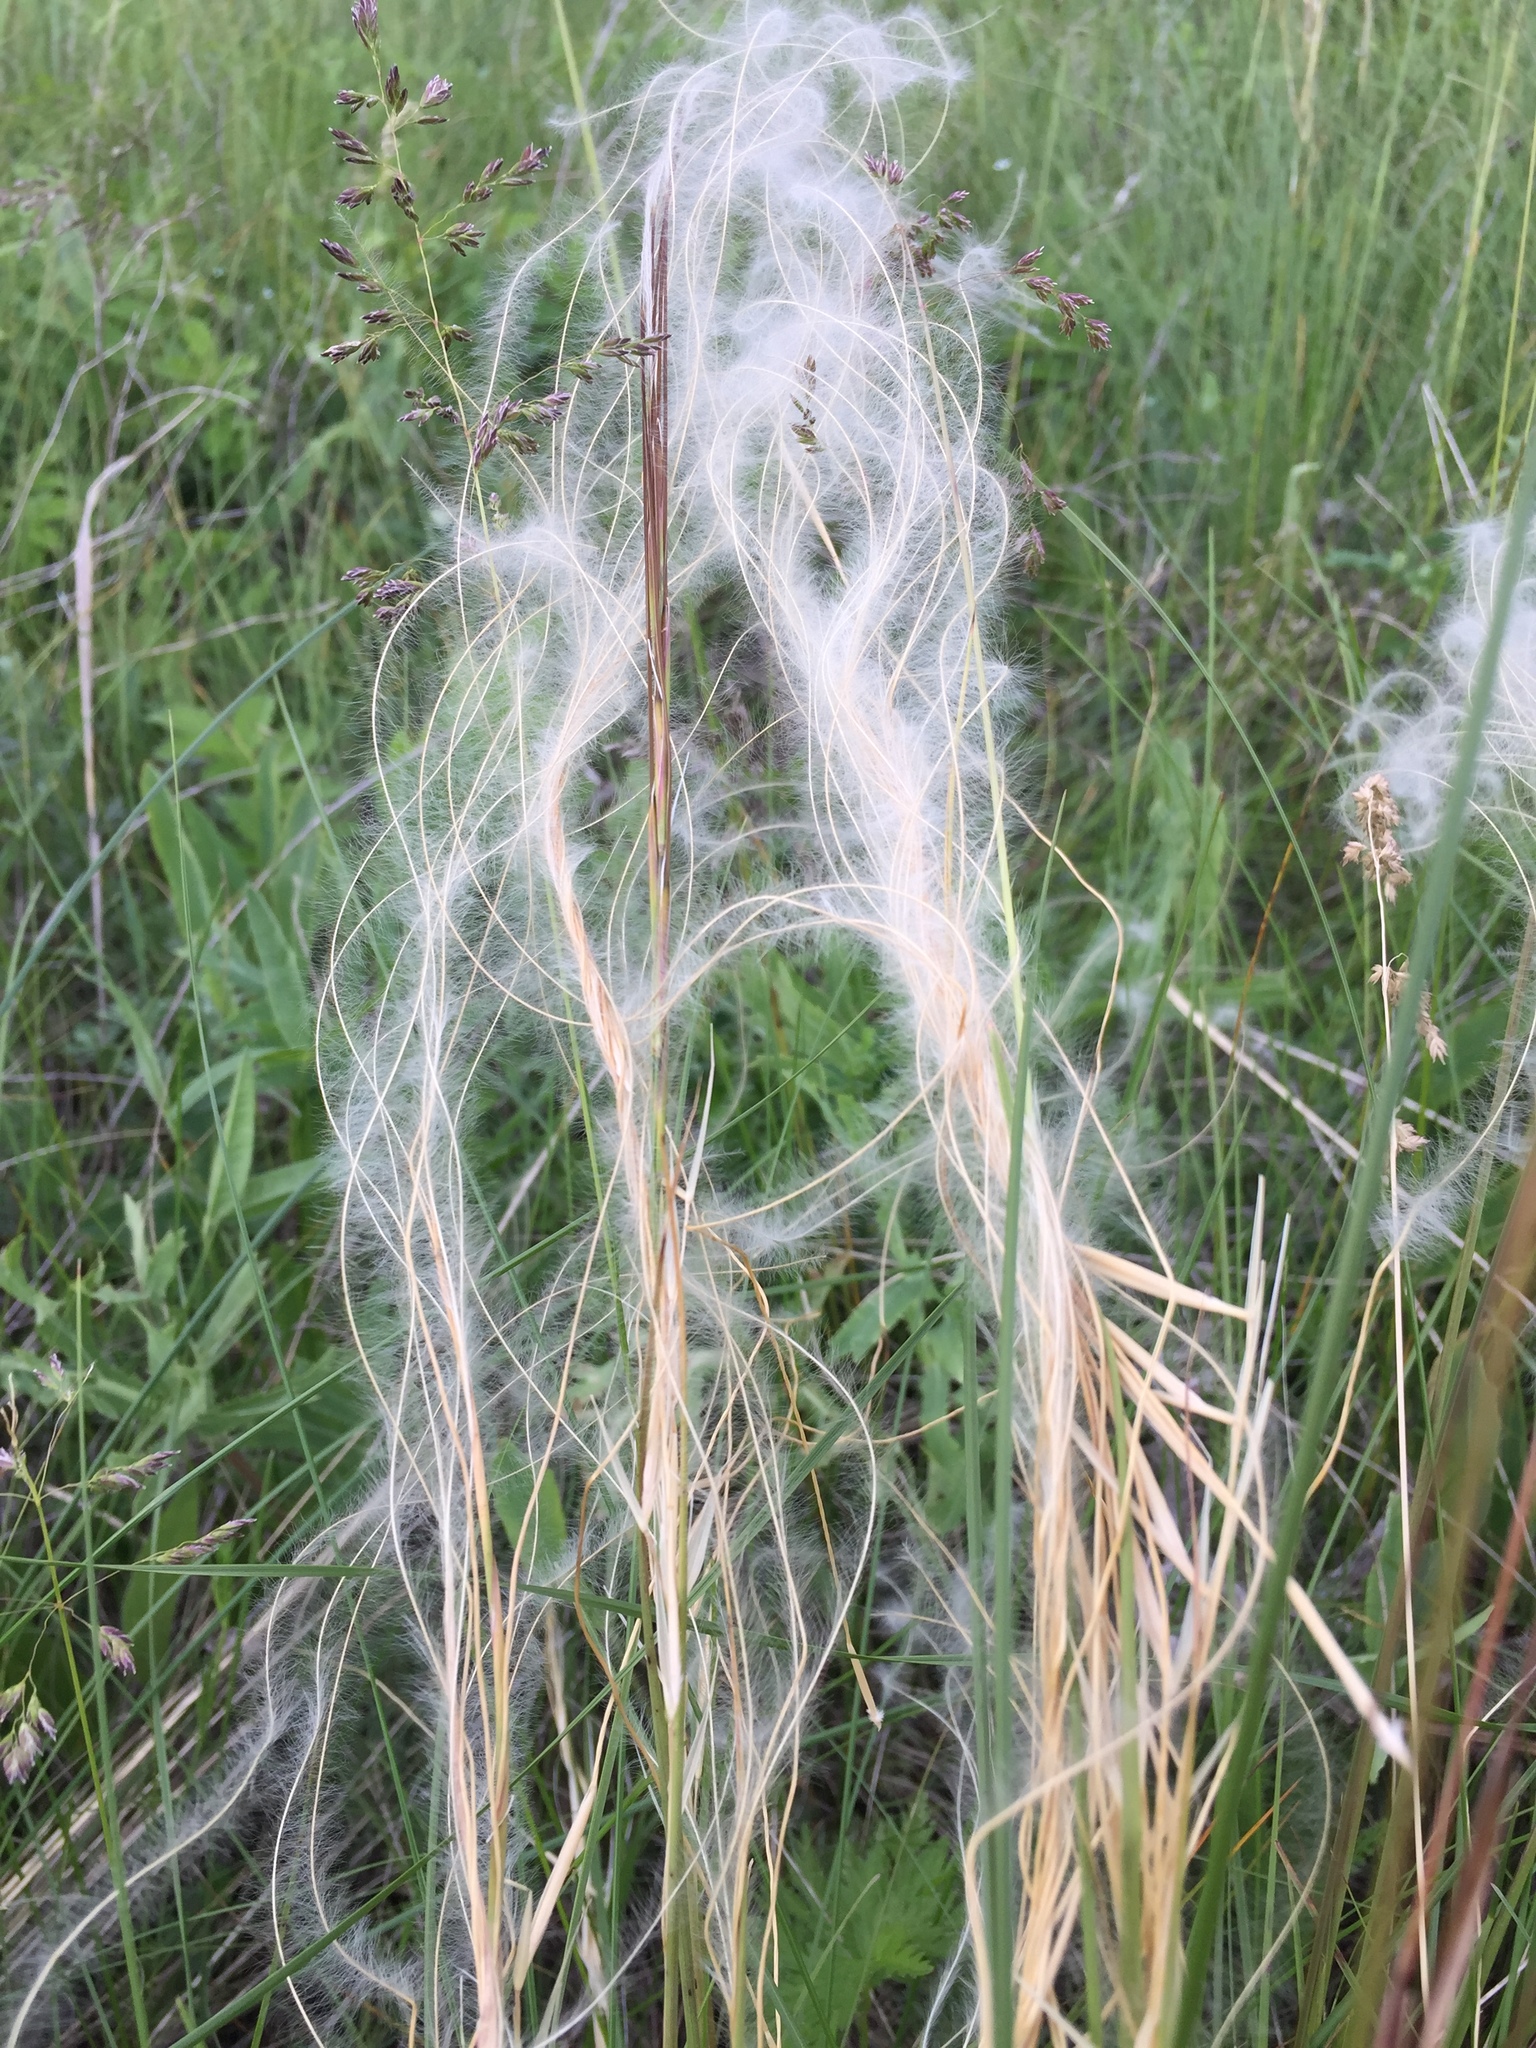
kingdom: Plantae
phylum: Tracheophyta
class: Liliopsida
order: Poales
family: Poaceae
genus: Stipa
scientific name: Stipa pulcherrima
